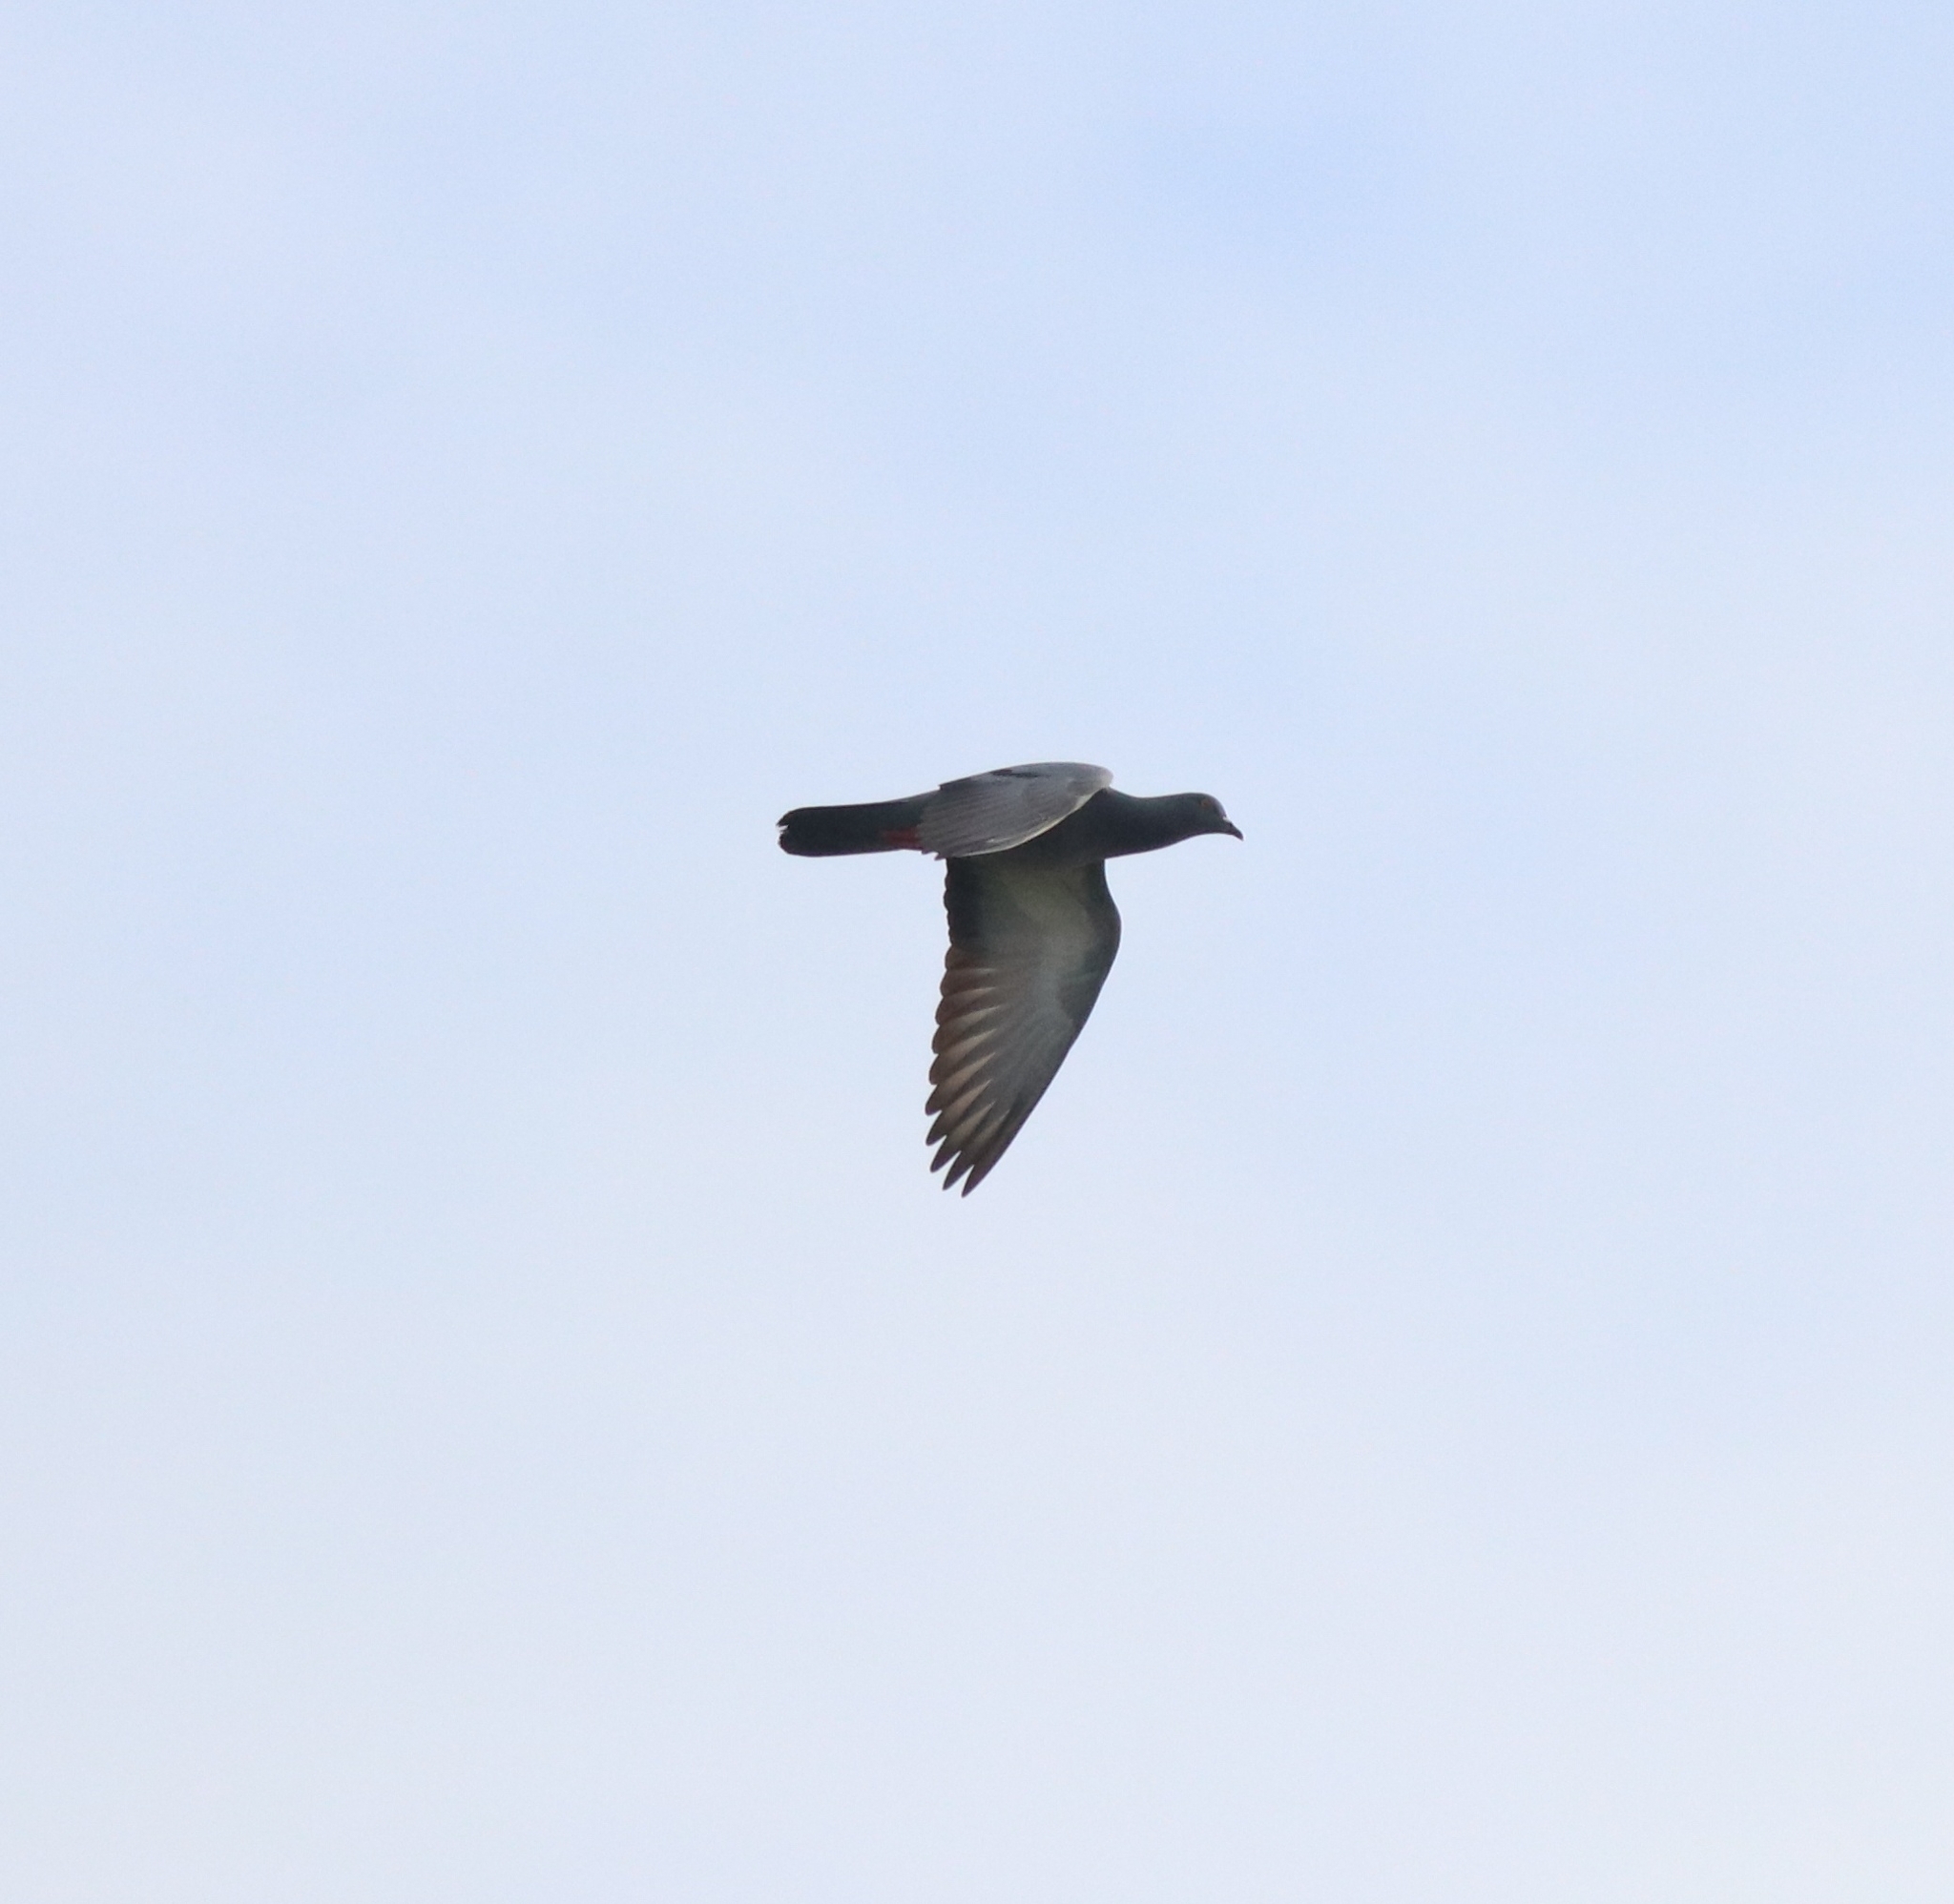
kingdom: Animalia
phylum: Chordata
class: Aves
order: Columbiformes
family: Columbidae
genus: Columba
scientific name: Columba livia
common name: Rock pigeon
